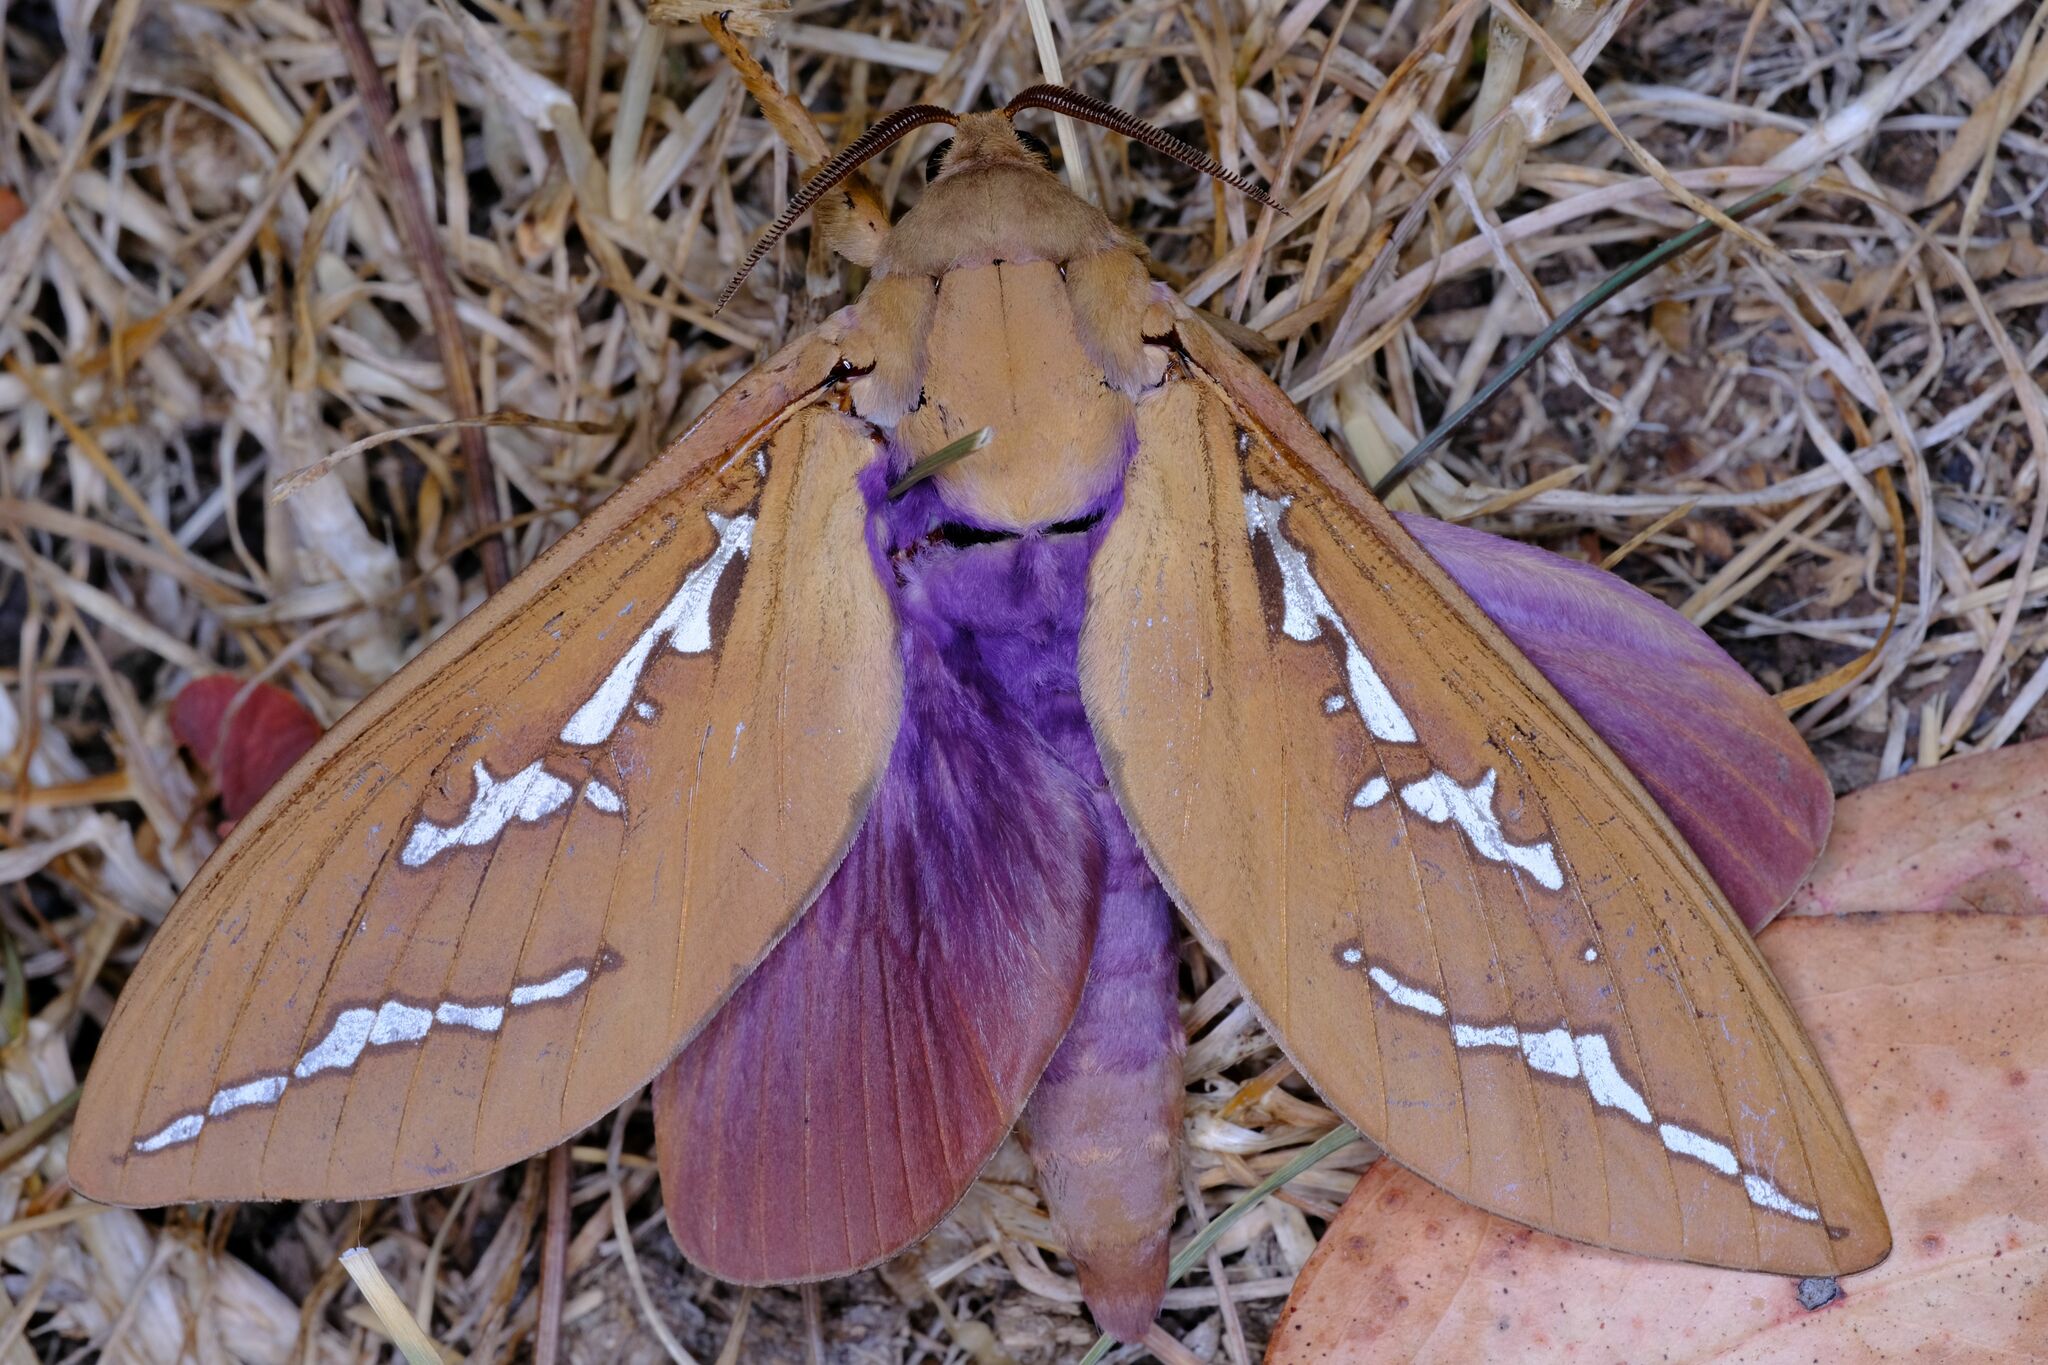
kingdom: Animalia
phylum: Arthropoda
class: Insecta
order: Lepidoptera
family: Hepialidae
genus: Abantiades
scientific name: Abantiades hyalinatus
